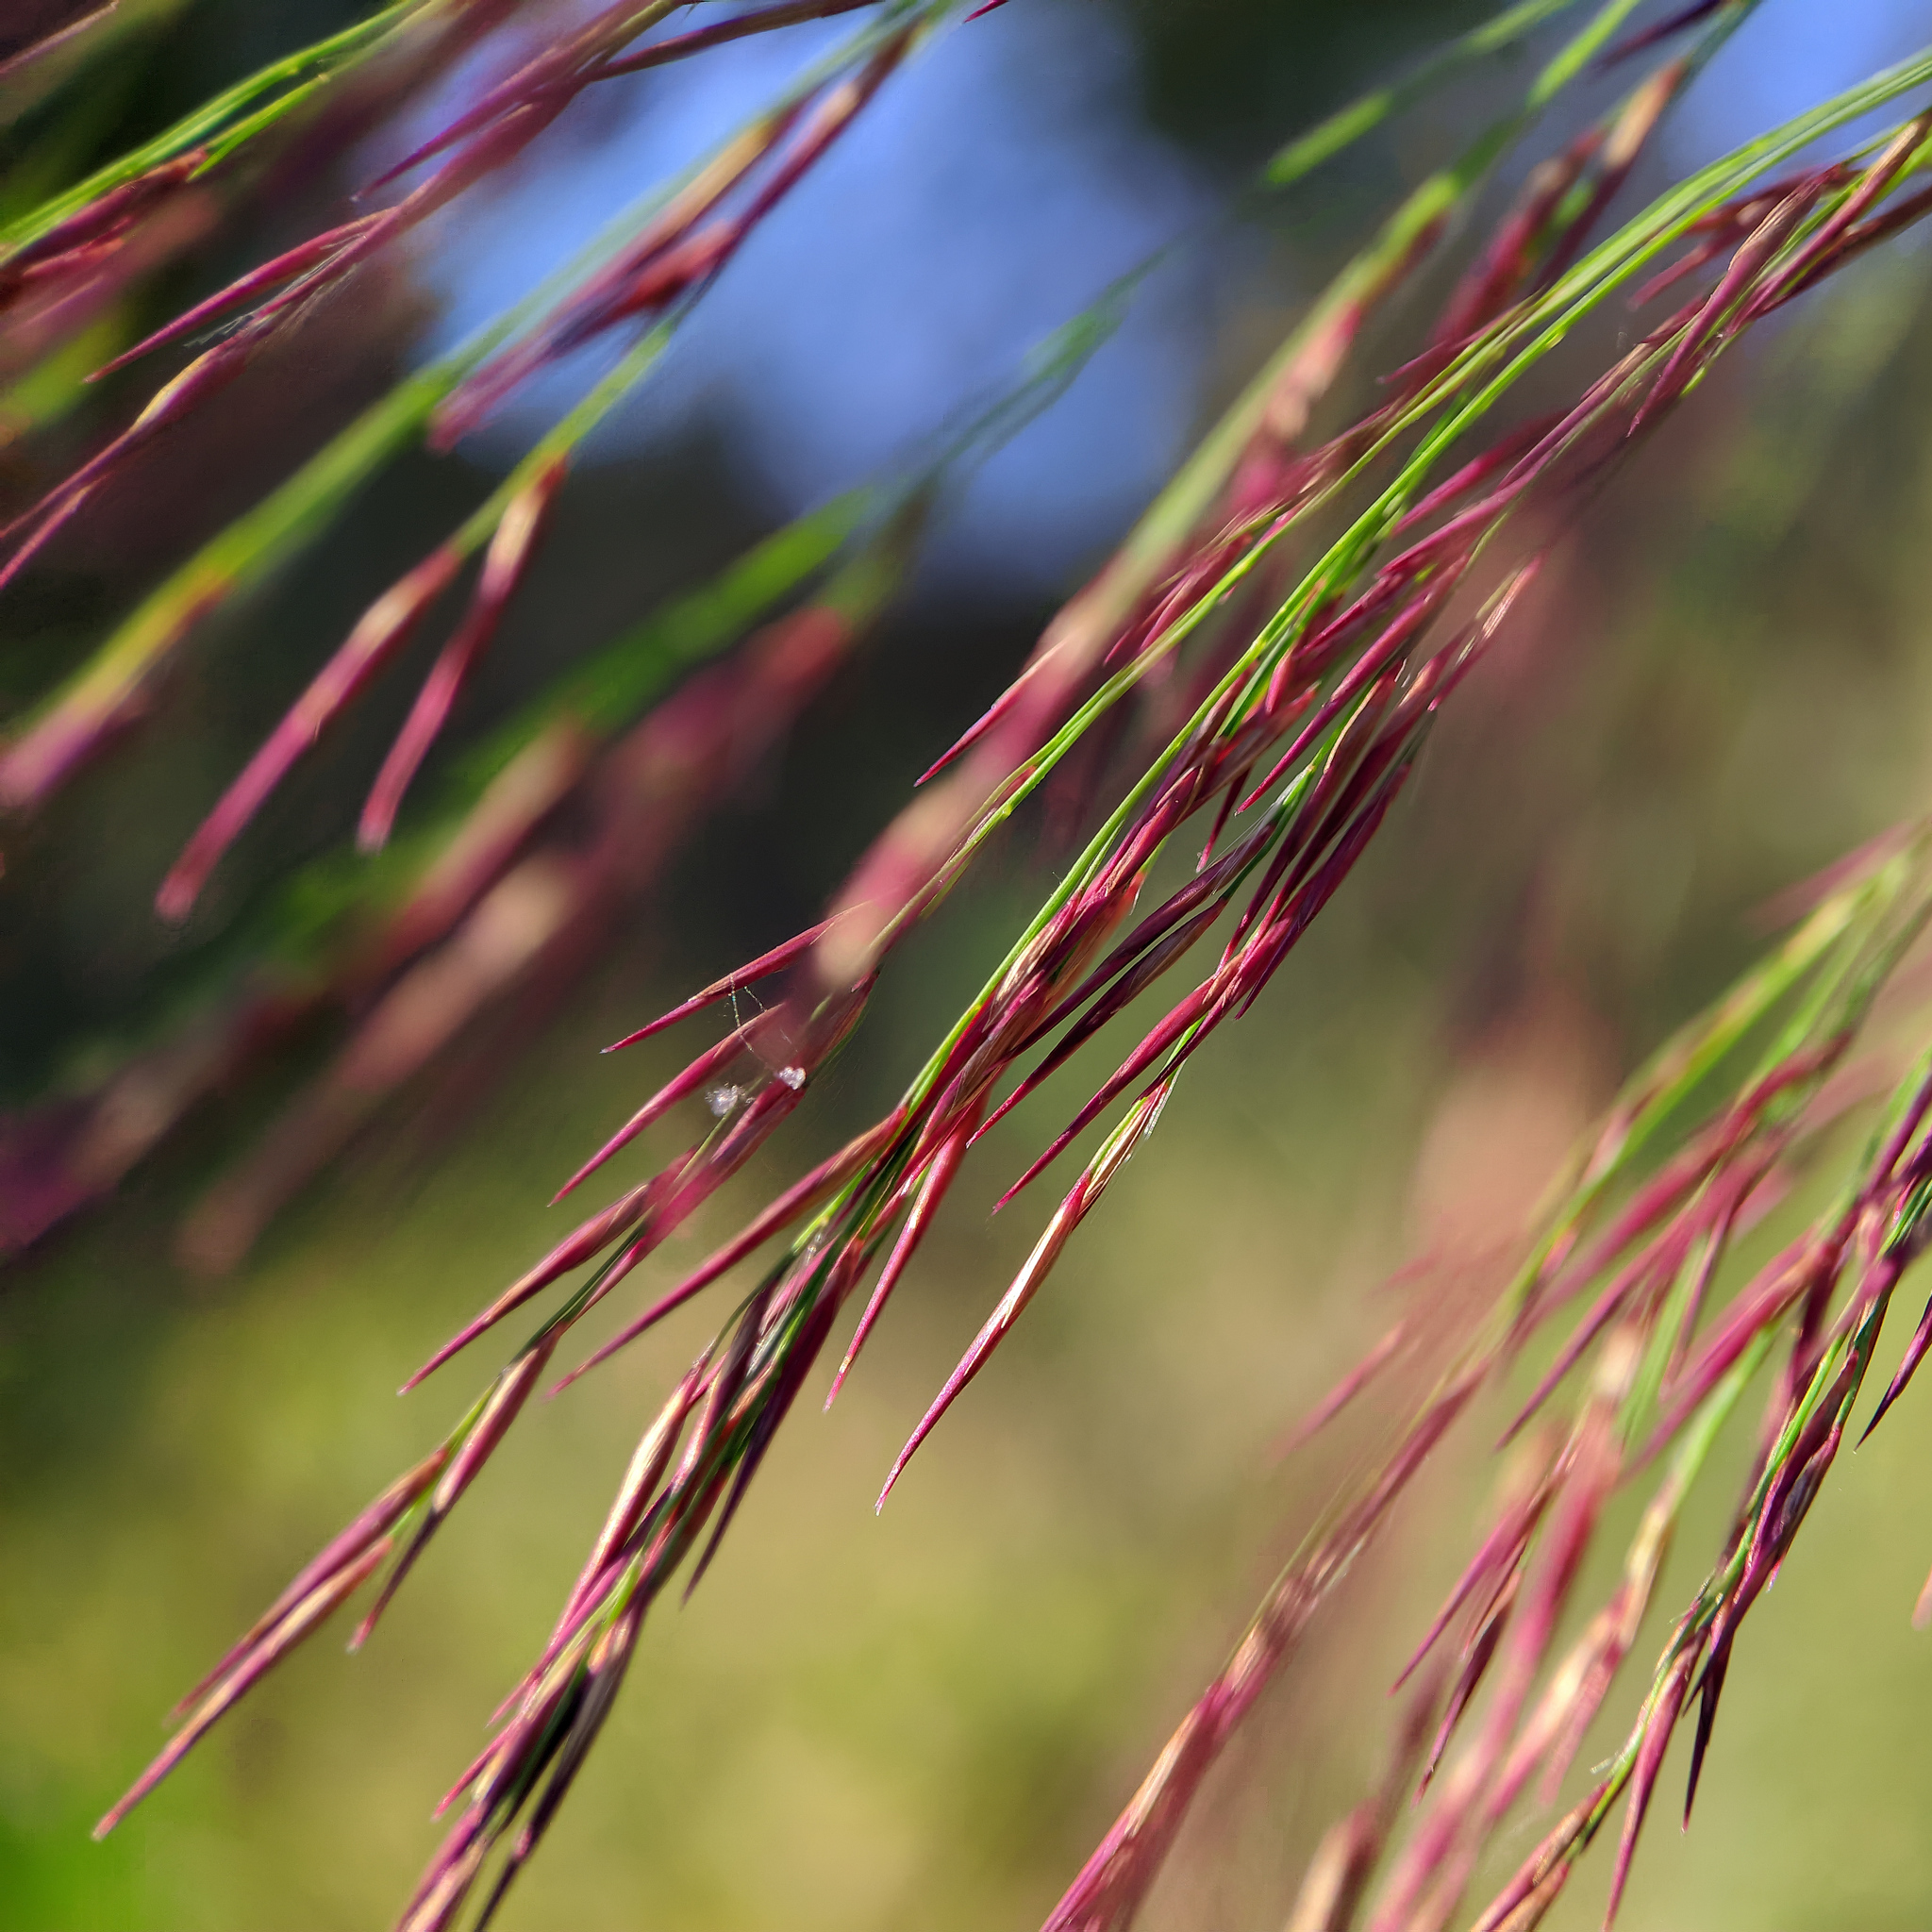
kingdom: Plantae
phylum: Tracheophyta
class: Liliopsida
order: Poales
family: Poaceae
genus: Phragmites
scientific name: Phragmites australis
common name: Common reed
